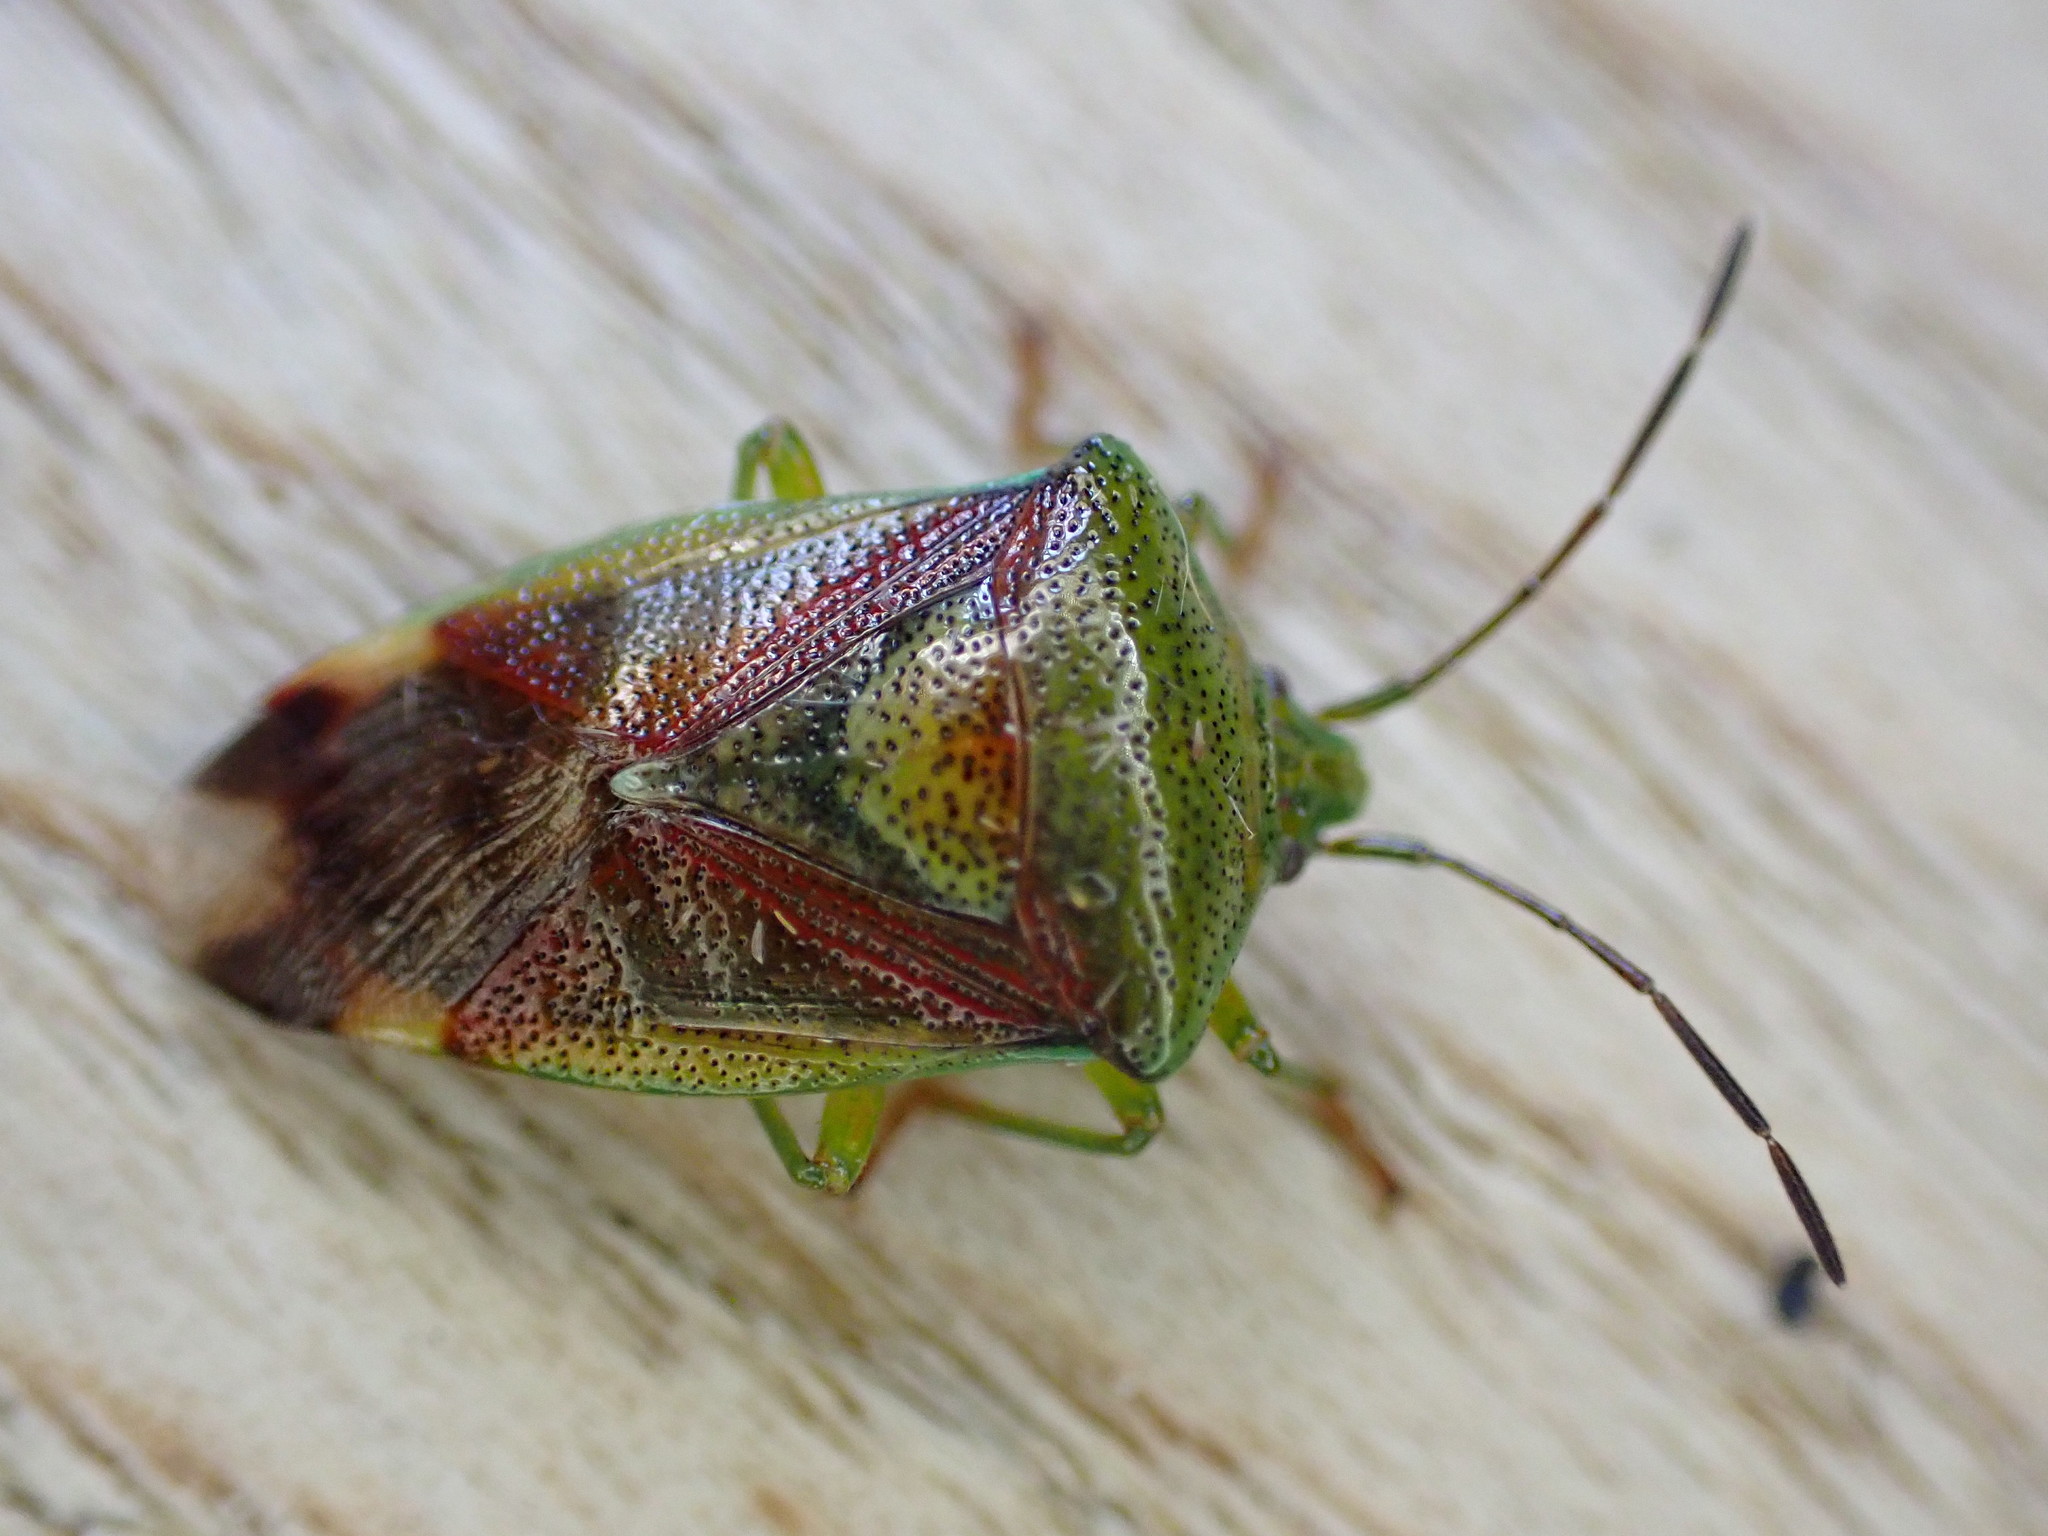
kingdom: Animalia
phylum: Arthropoda
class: Insecta
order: Hemiptera
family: Acanthosomatidae
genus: Elasmostethus
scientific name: Elasmostethus interstinctus
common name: Birch shieldbug
